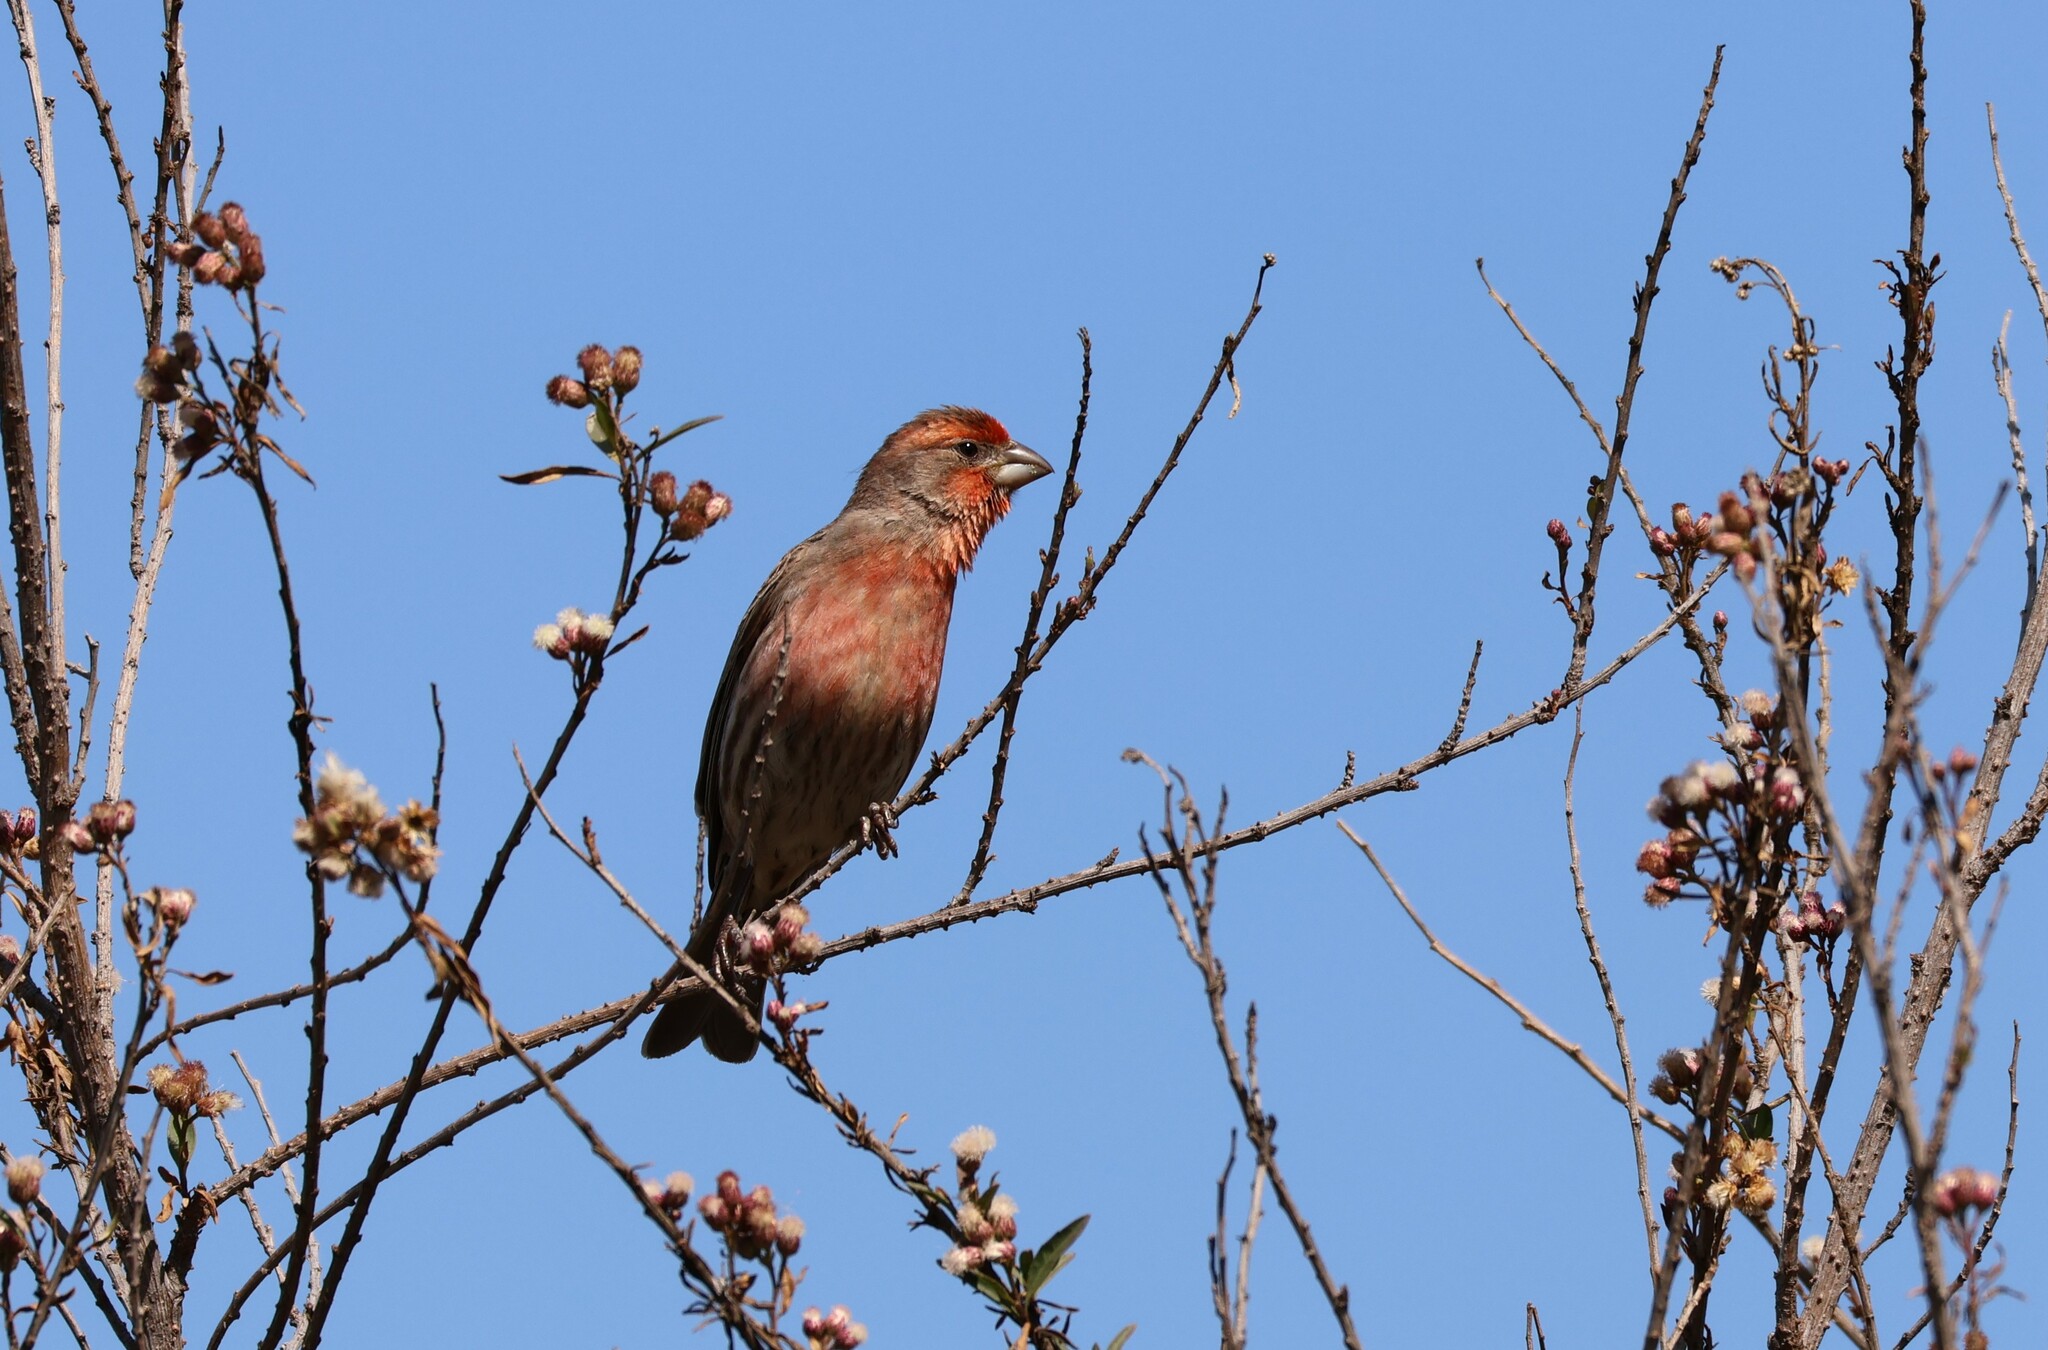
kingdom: Animalia
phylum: Chordata
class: Aves
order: Passeriformes
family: Fringillidae
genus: Haemorhous
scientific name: Haemorhous mexicanus
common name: House finch
